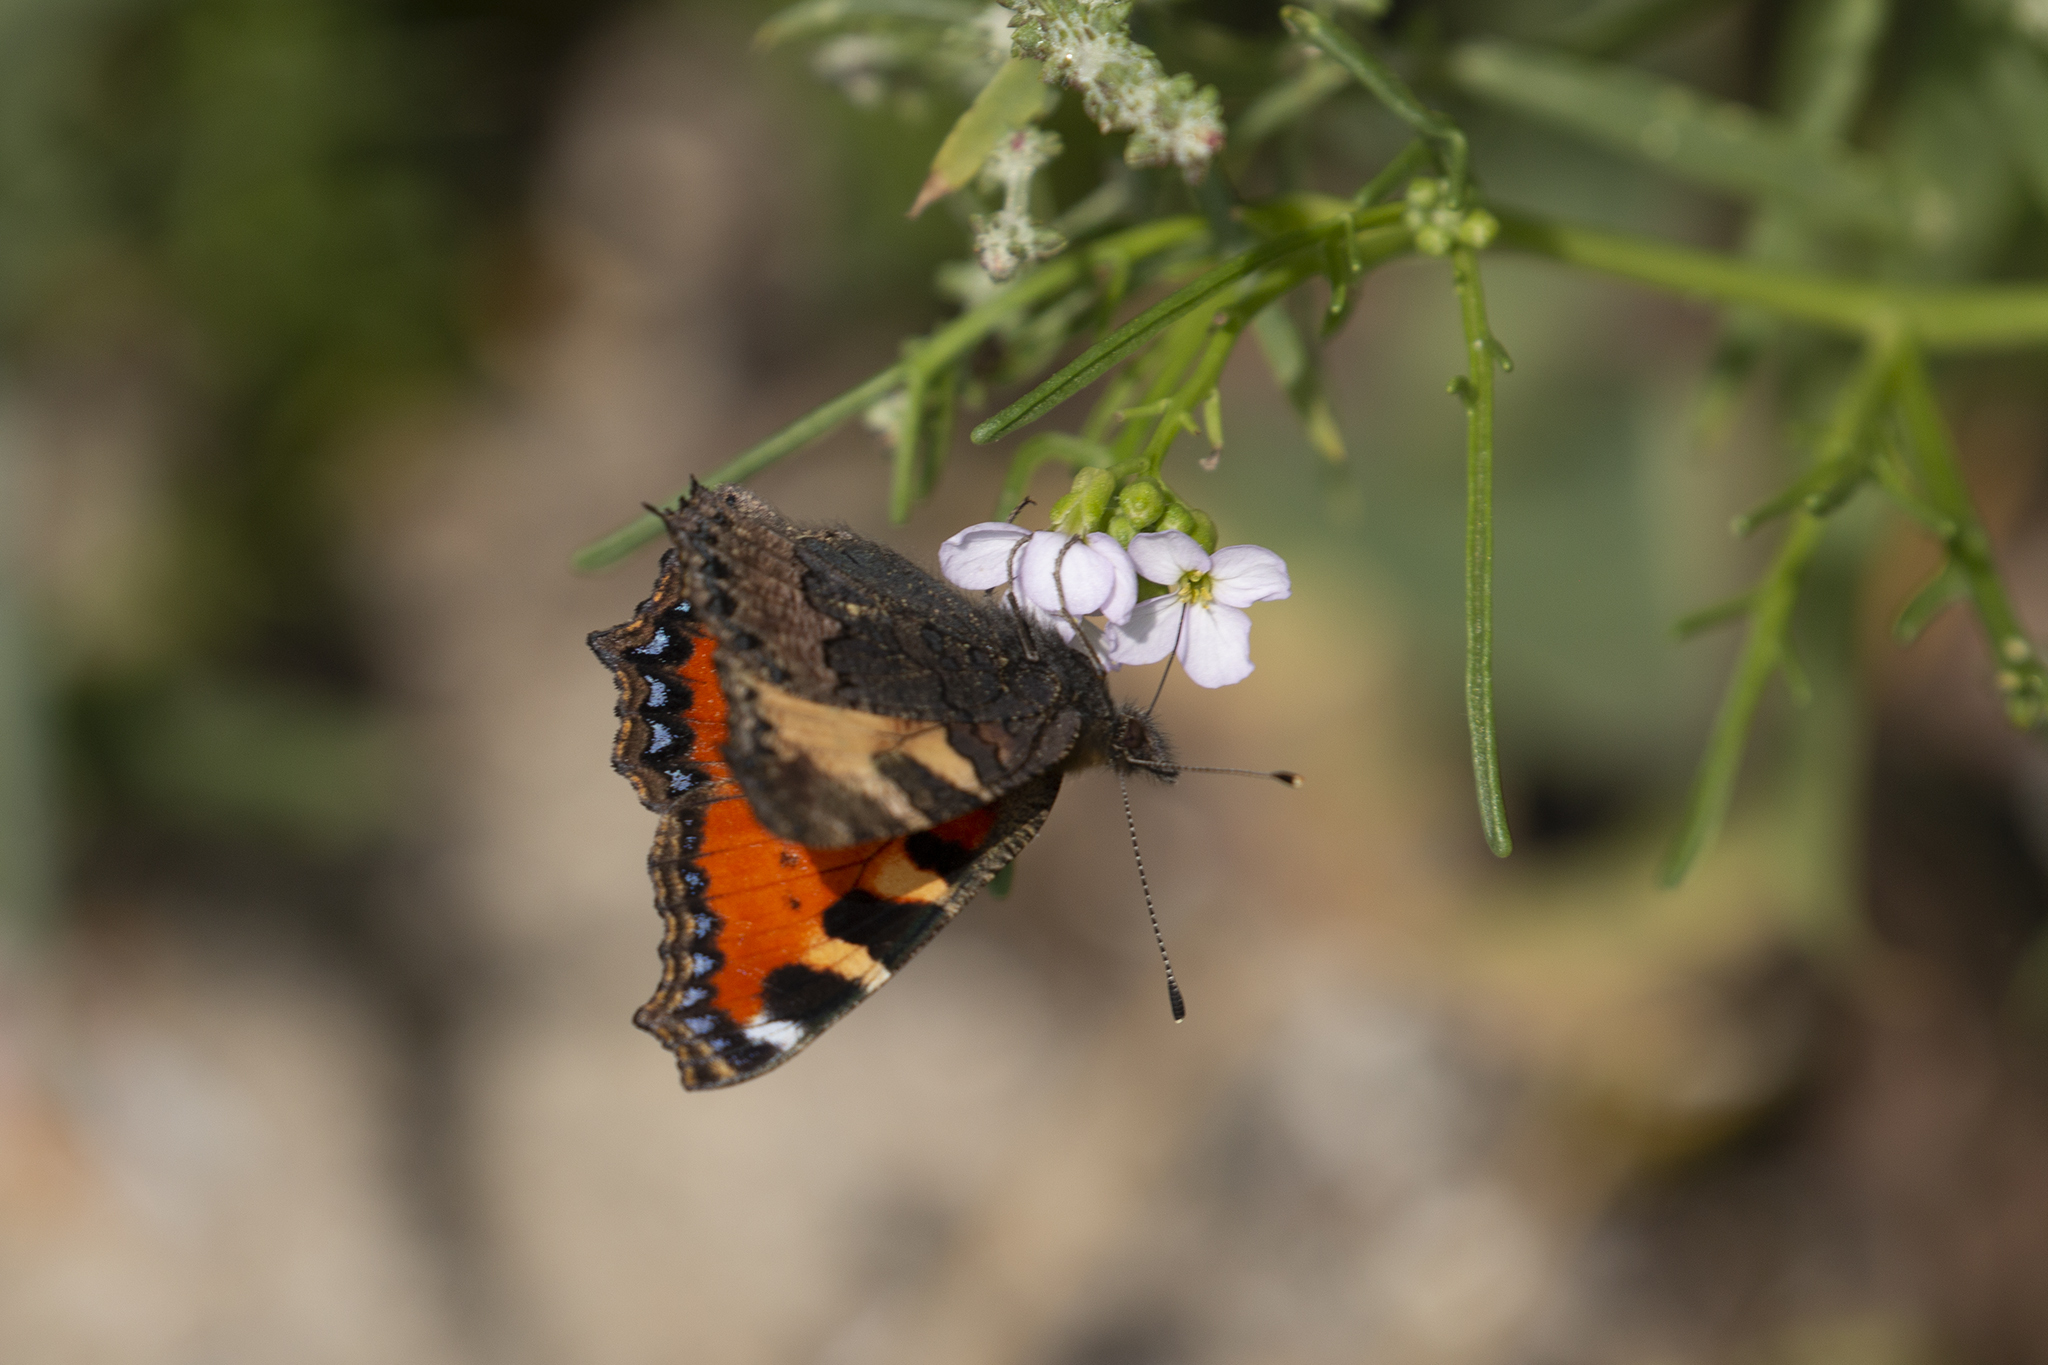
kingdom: Animalia
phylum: Arthropoda
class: Insecta
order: Lepidoptera
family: Nymphalidae
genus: Aglais
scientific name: Aglais urticae
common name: Small tortoiseshell
